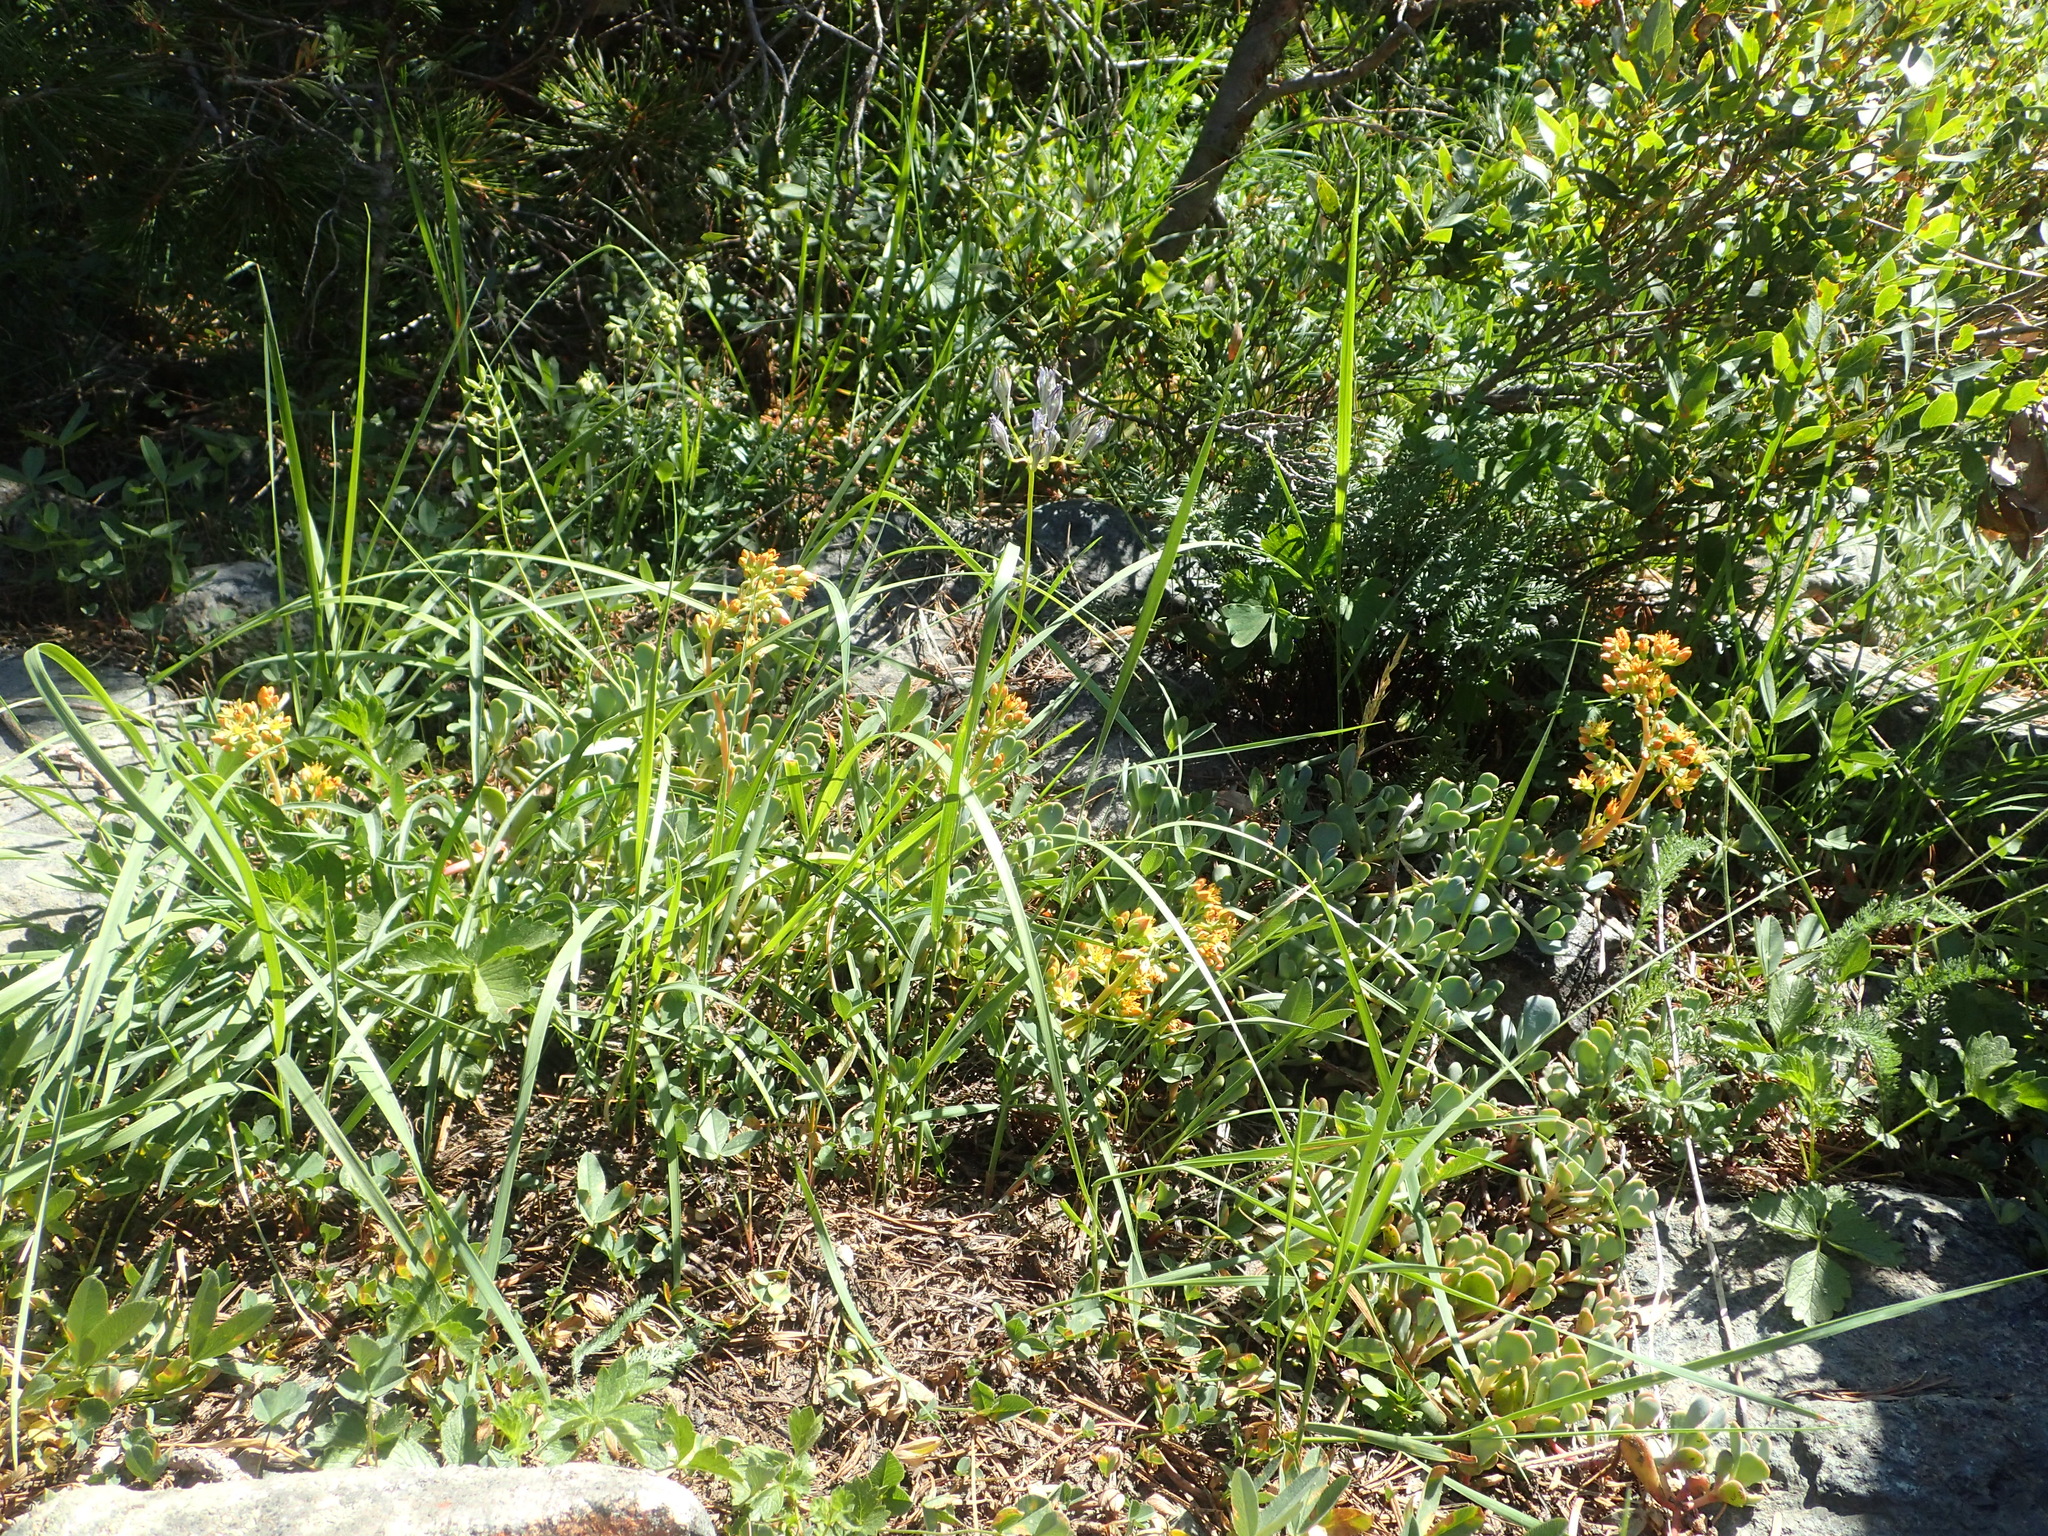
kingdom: Plantae
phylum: Tracheophyta
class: Magnoliopsida
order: Saxifragales
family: Crassulaceae
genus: Sedum
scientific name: Sedum obtusatum
